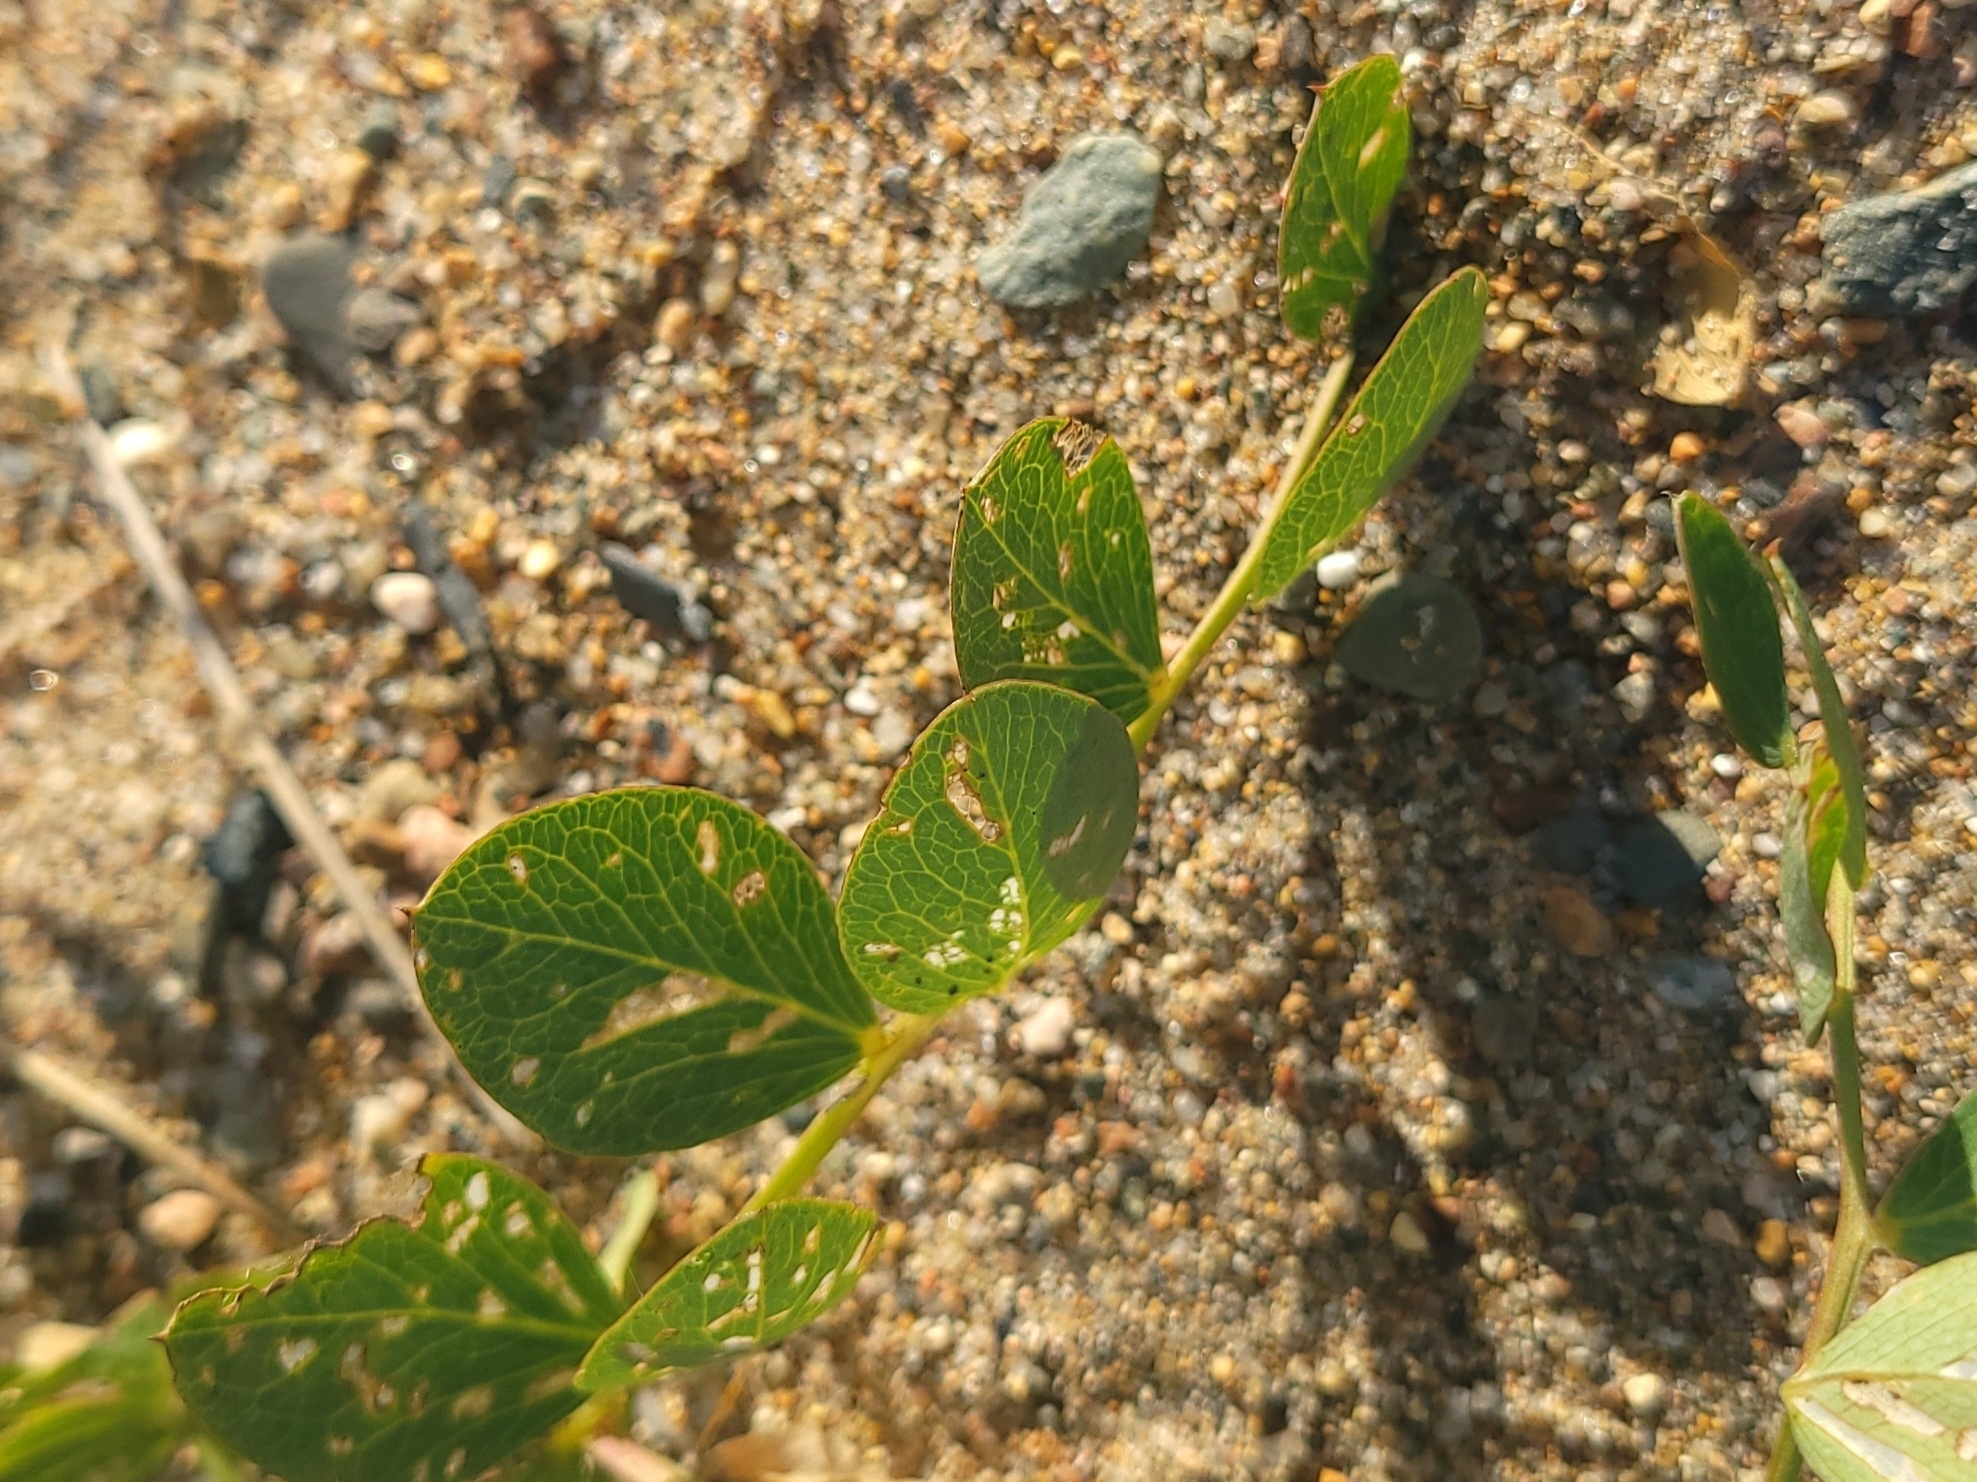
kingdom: Plantae
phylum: Tracheophyta
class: Magnoliopsida
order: Fabales
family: Fabaceae
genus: Lathyrus
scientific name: Lathyrus japonicus
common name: Sea pea
